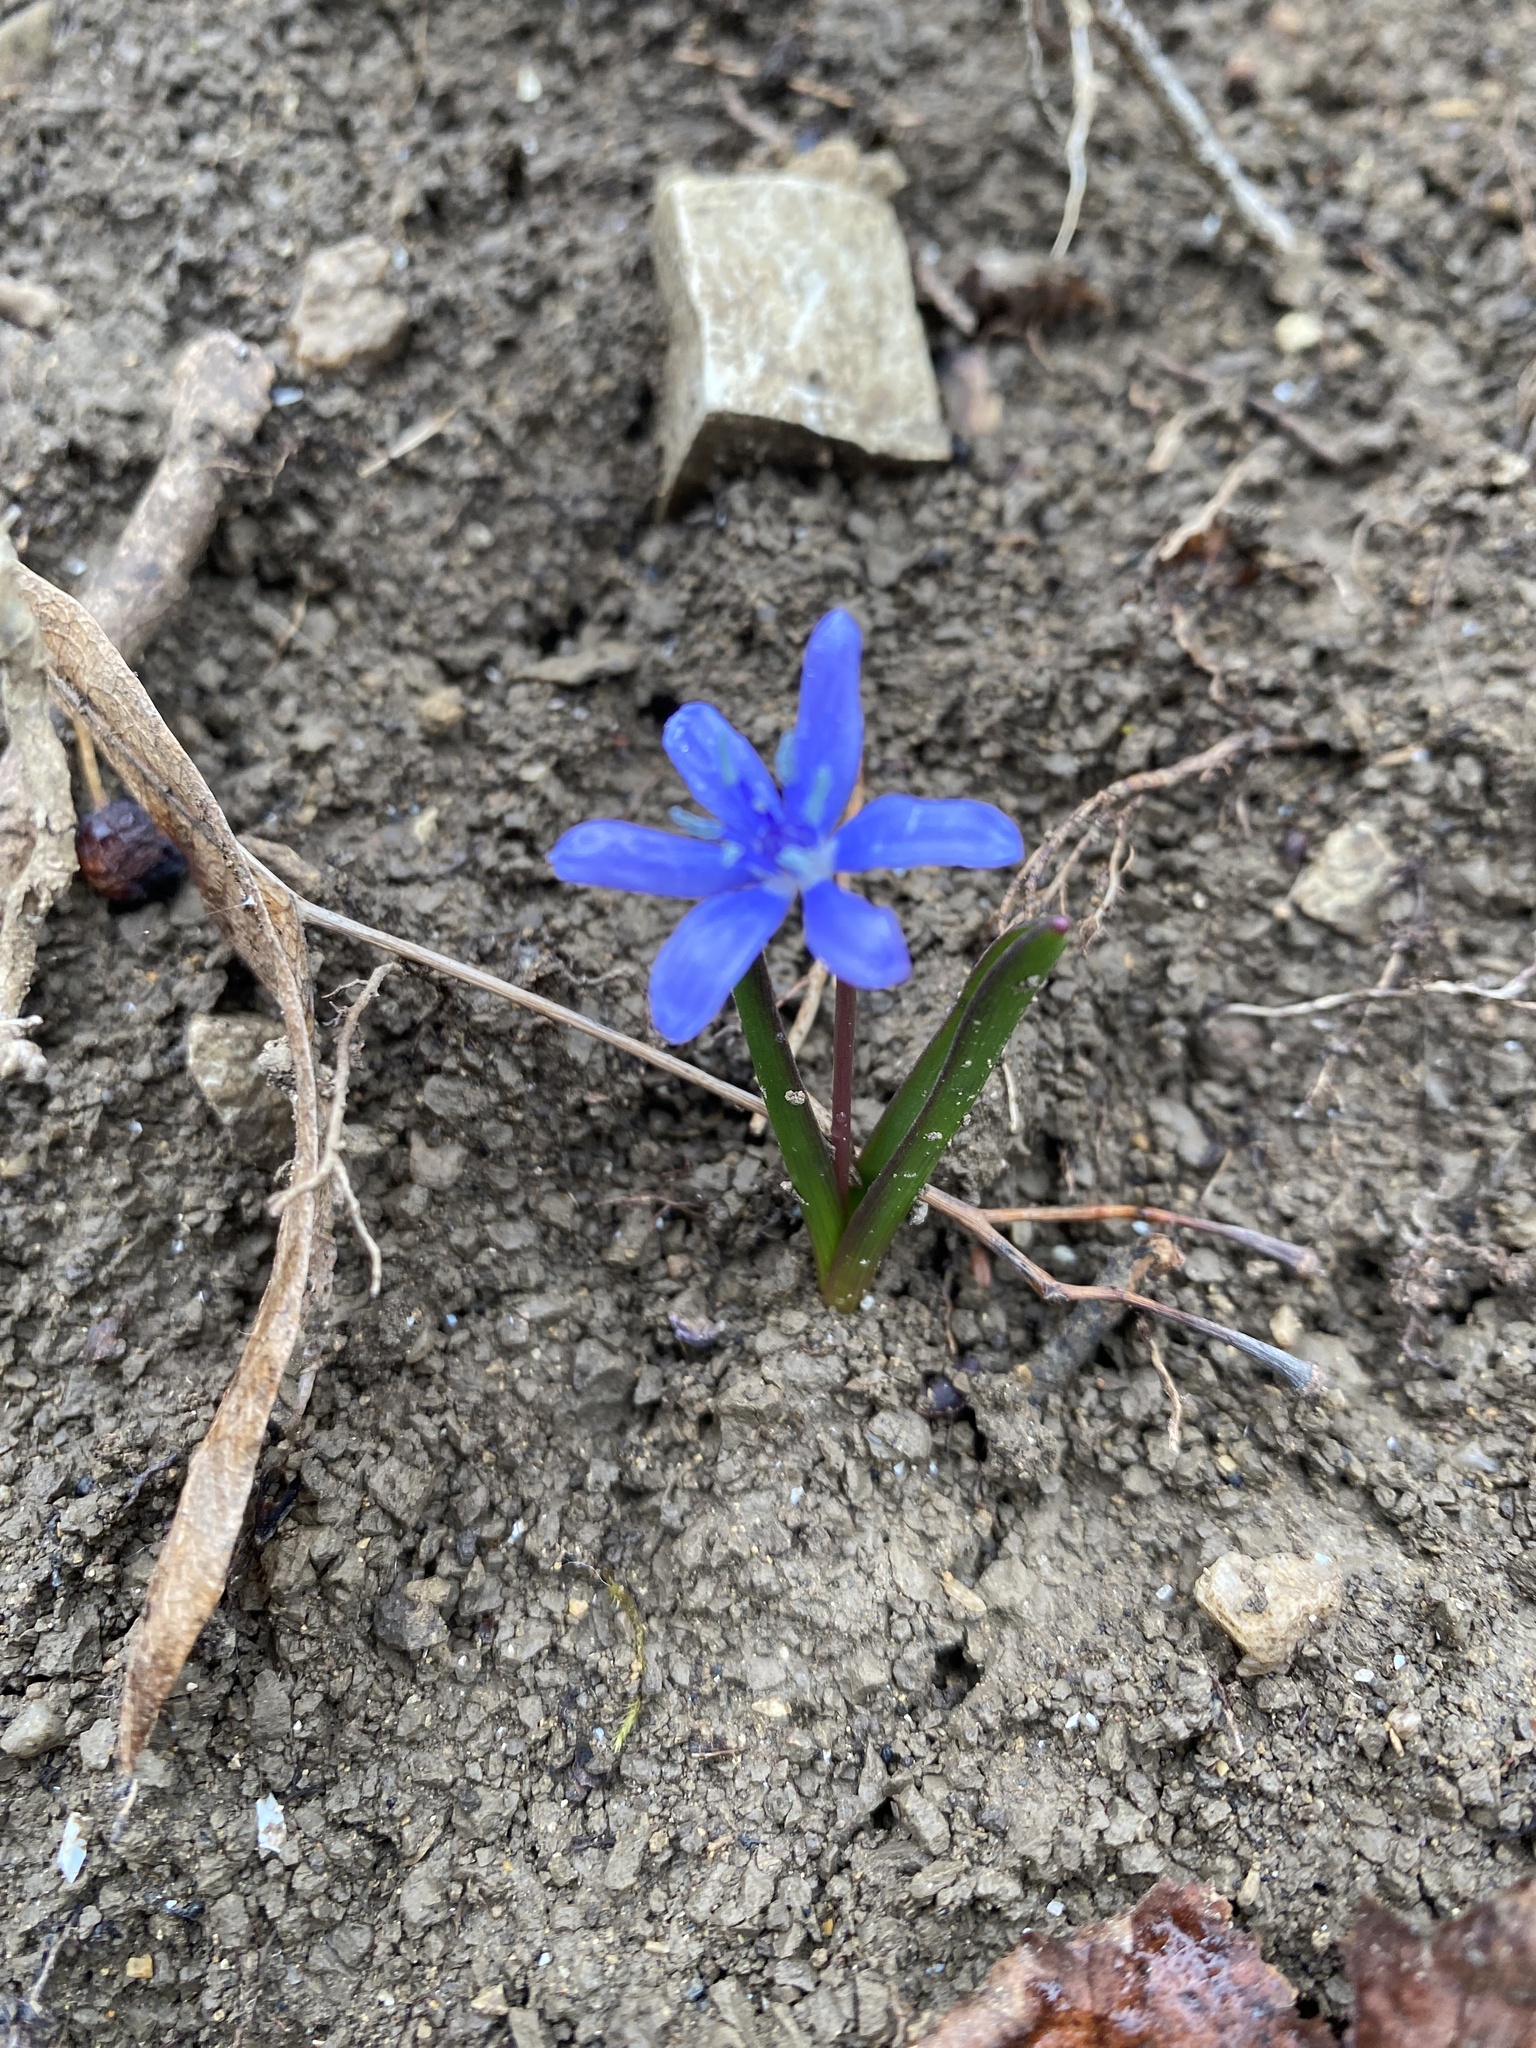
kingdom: Plantae
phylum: Tracheophyta
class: Liliopsida
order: Asparagales
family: Asparagaceae
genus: Scilla
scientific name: Scilla bifolia
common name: Alpine squill
